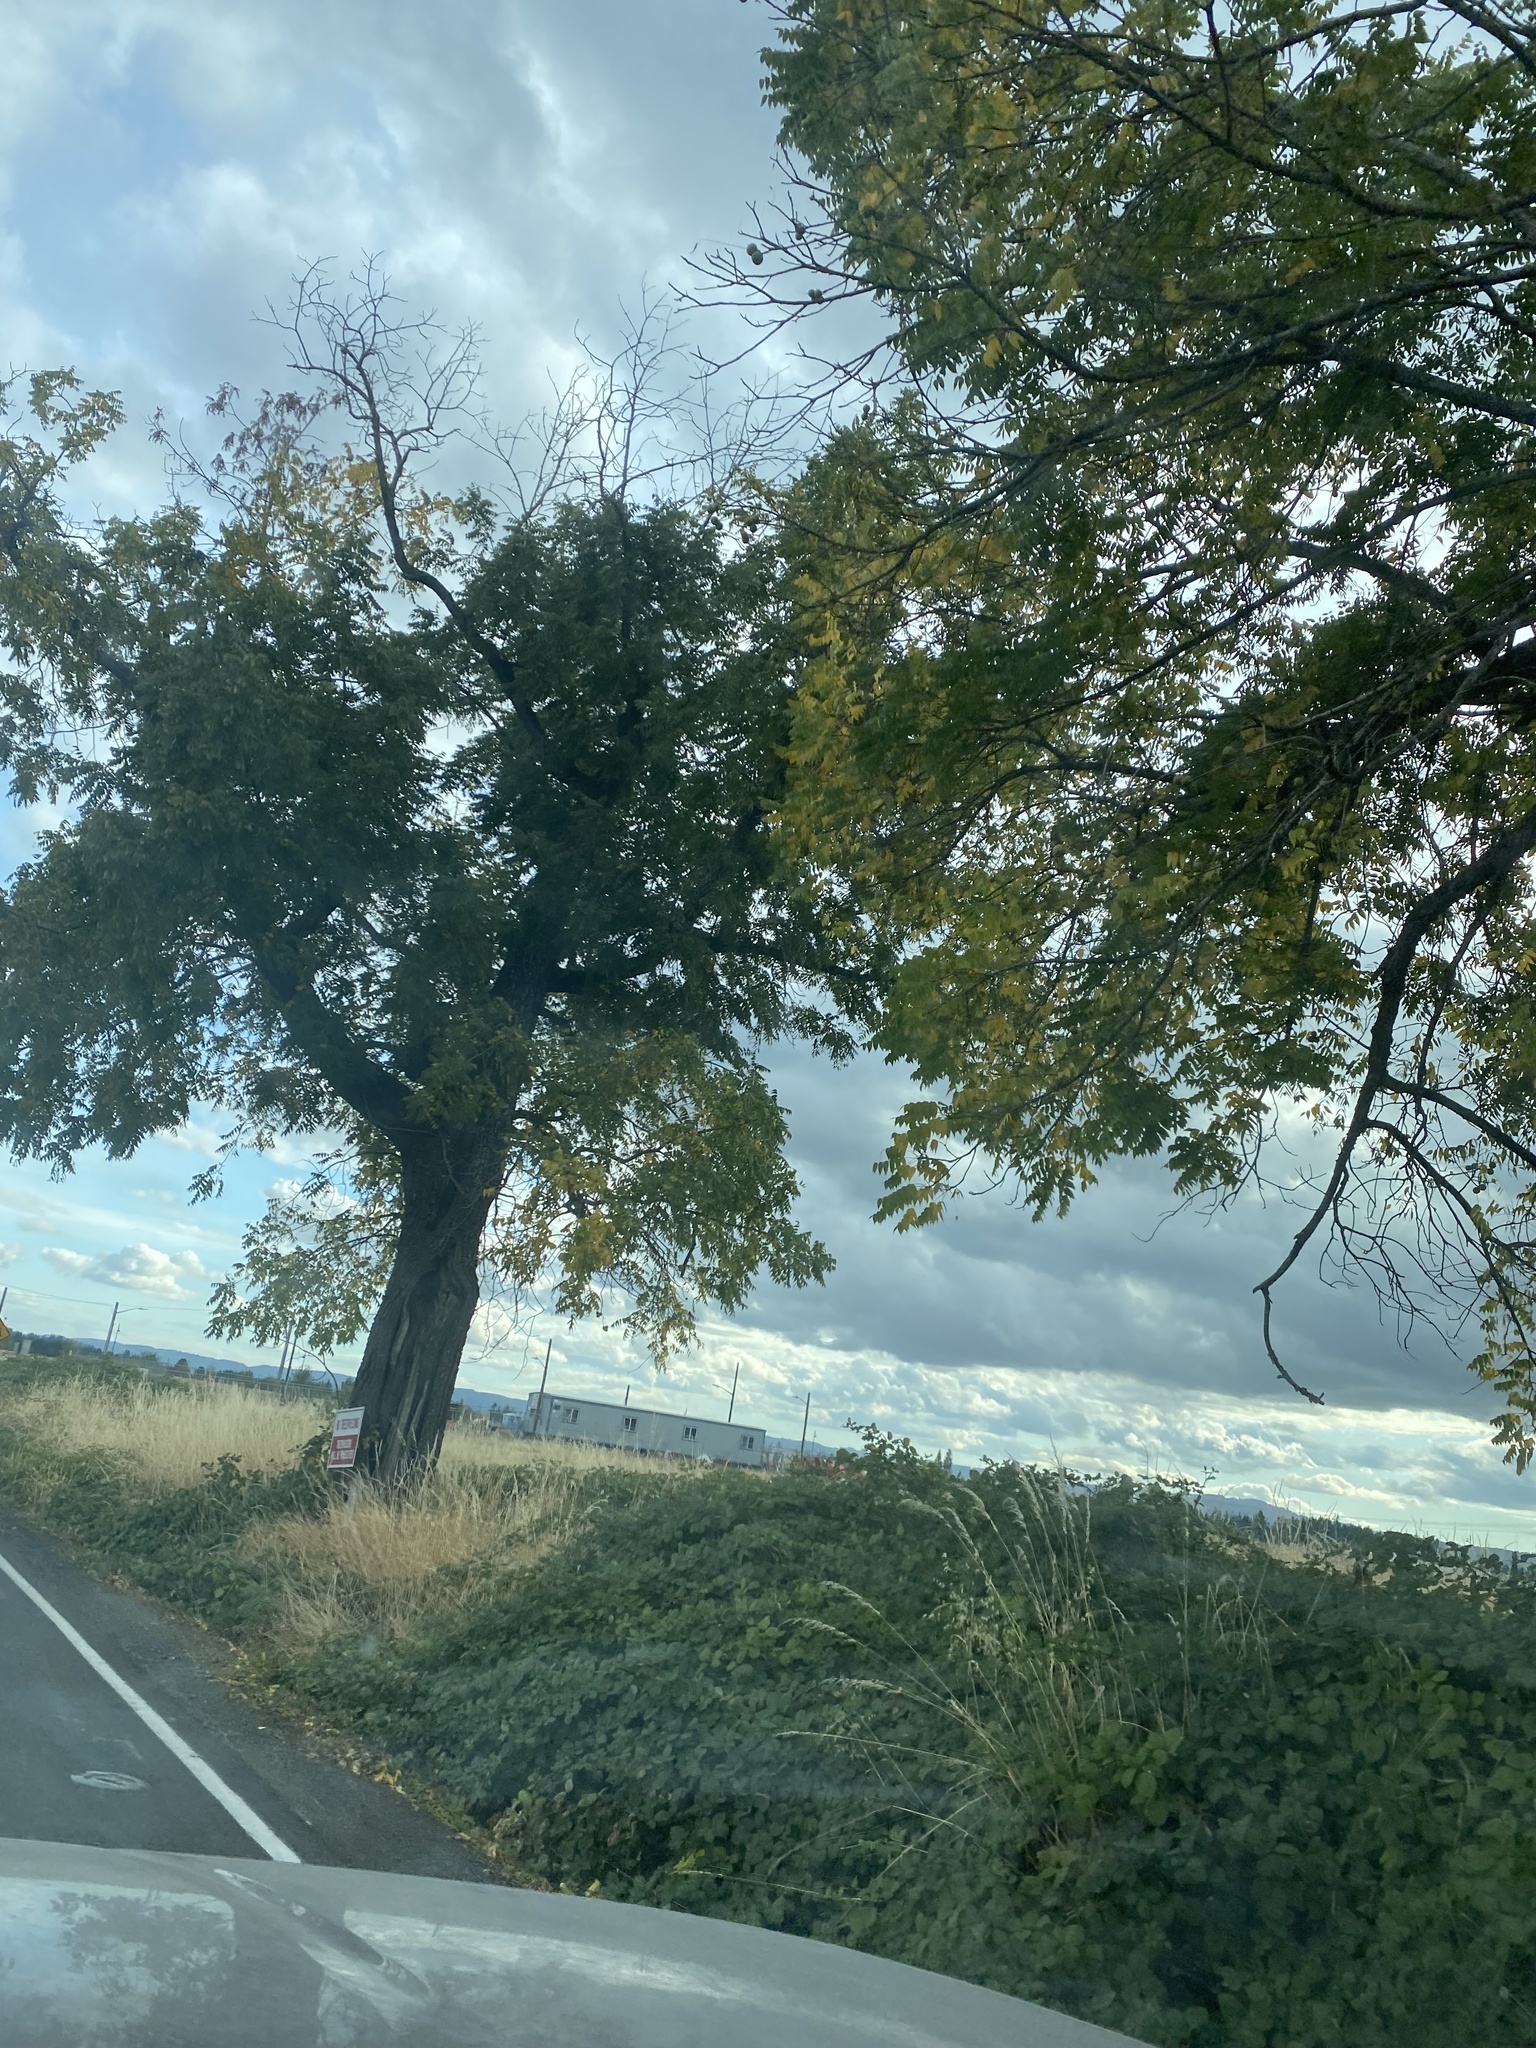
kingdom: Plantae
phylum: Tracheophyta
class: Magnoliopsida
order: Fagales
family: Juglandaceae
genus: Juglans
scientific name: Juglans nigra
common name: Black walnut
